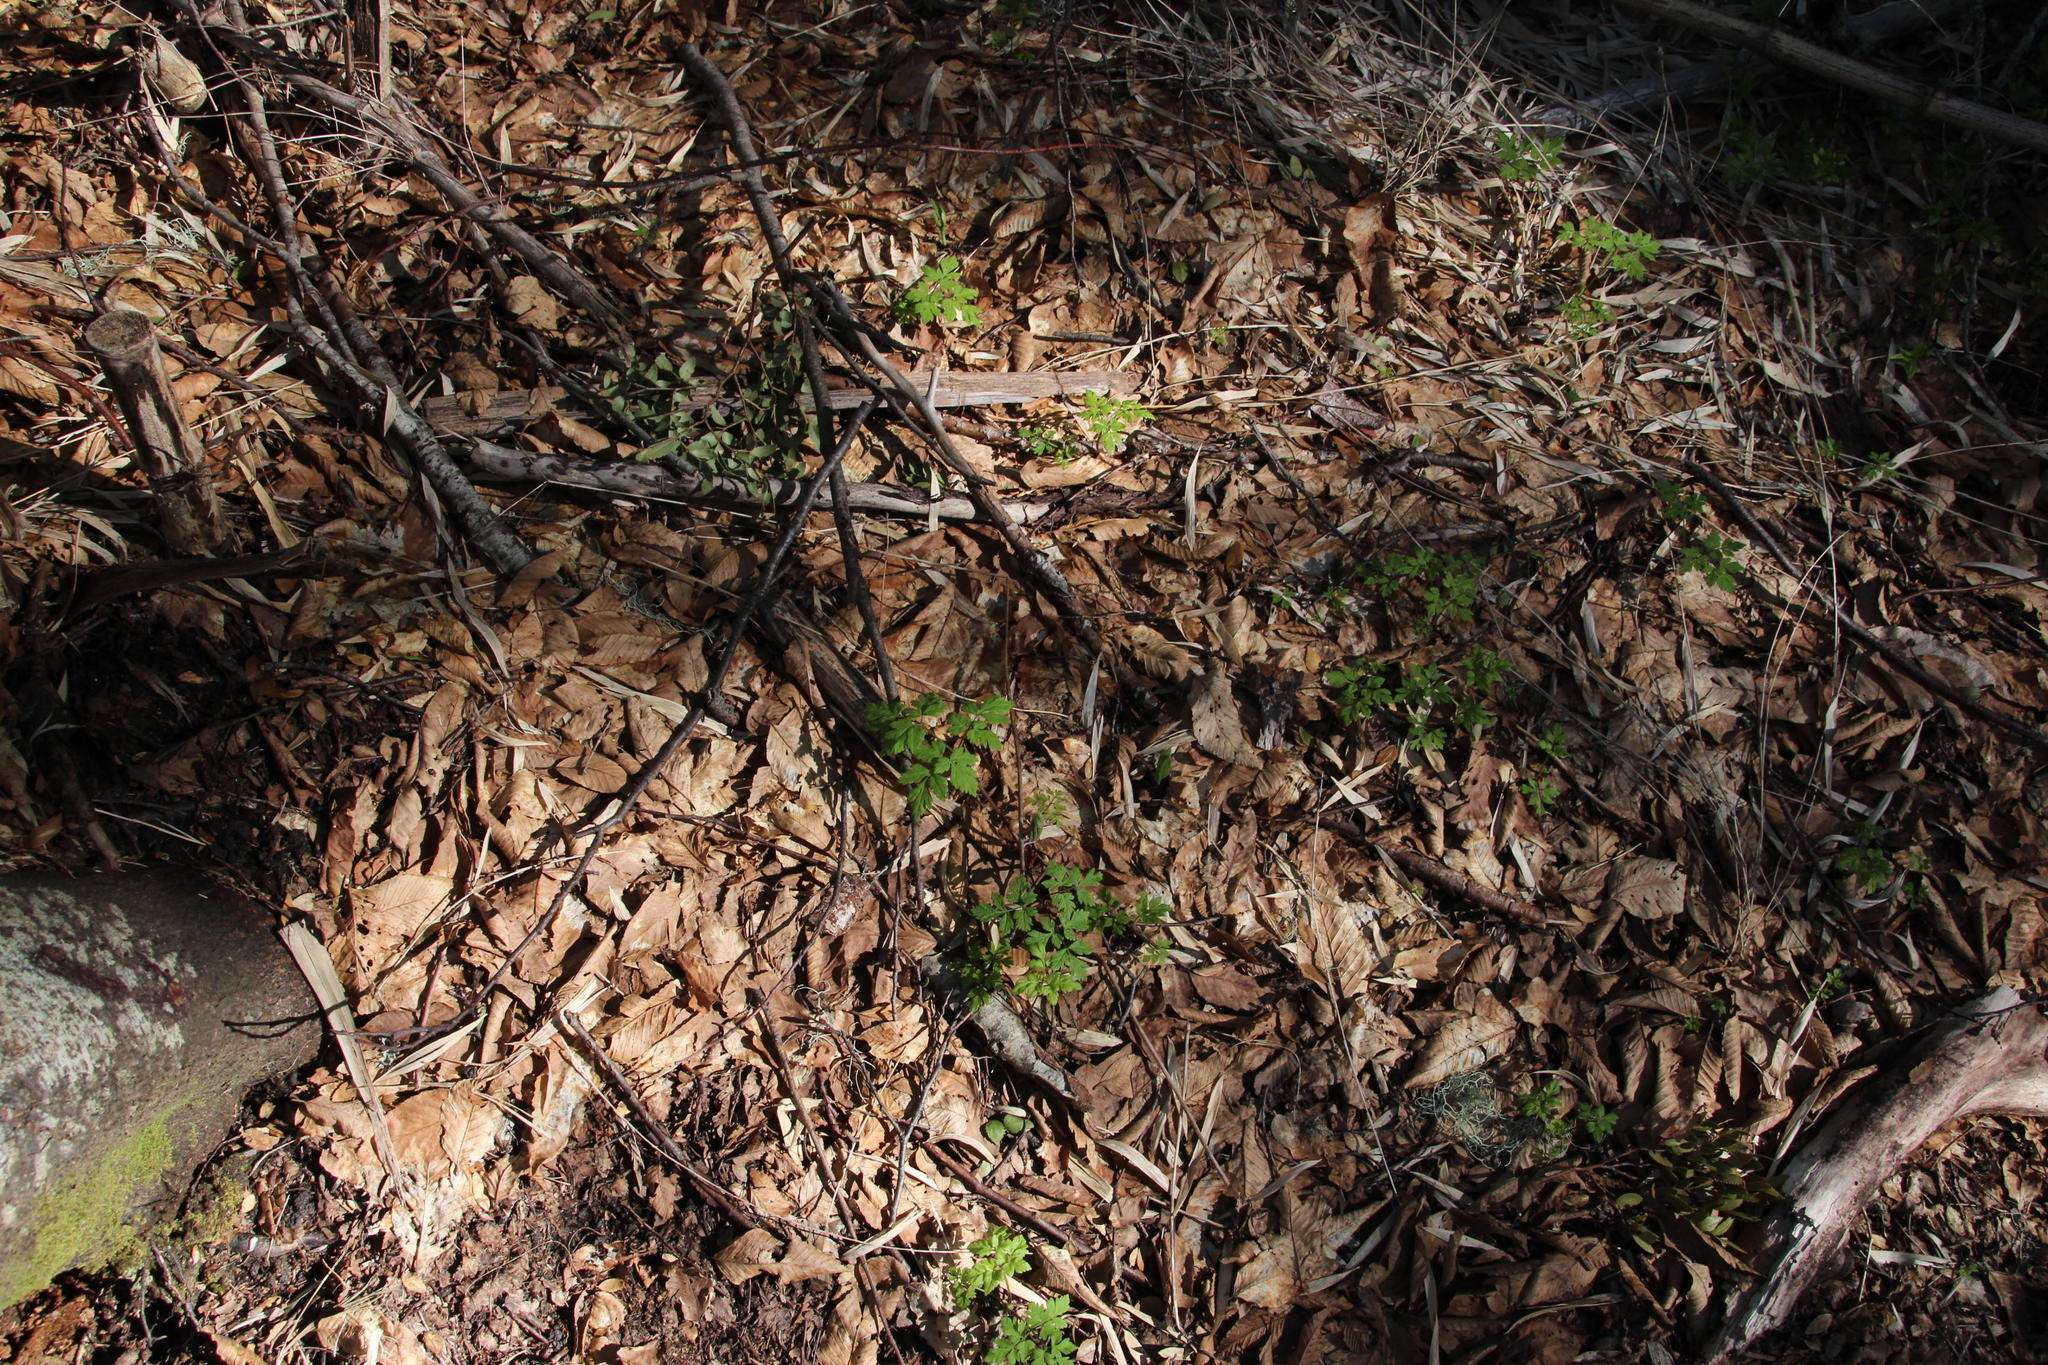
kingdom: Plantae
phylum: Tracheophyta
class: Magnoliopsida
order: Apiales
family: Apiaceae
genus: Osmorhiza
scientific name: Osmorhiza berteroi
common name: Mountain sweet cicely
